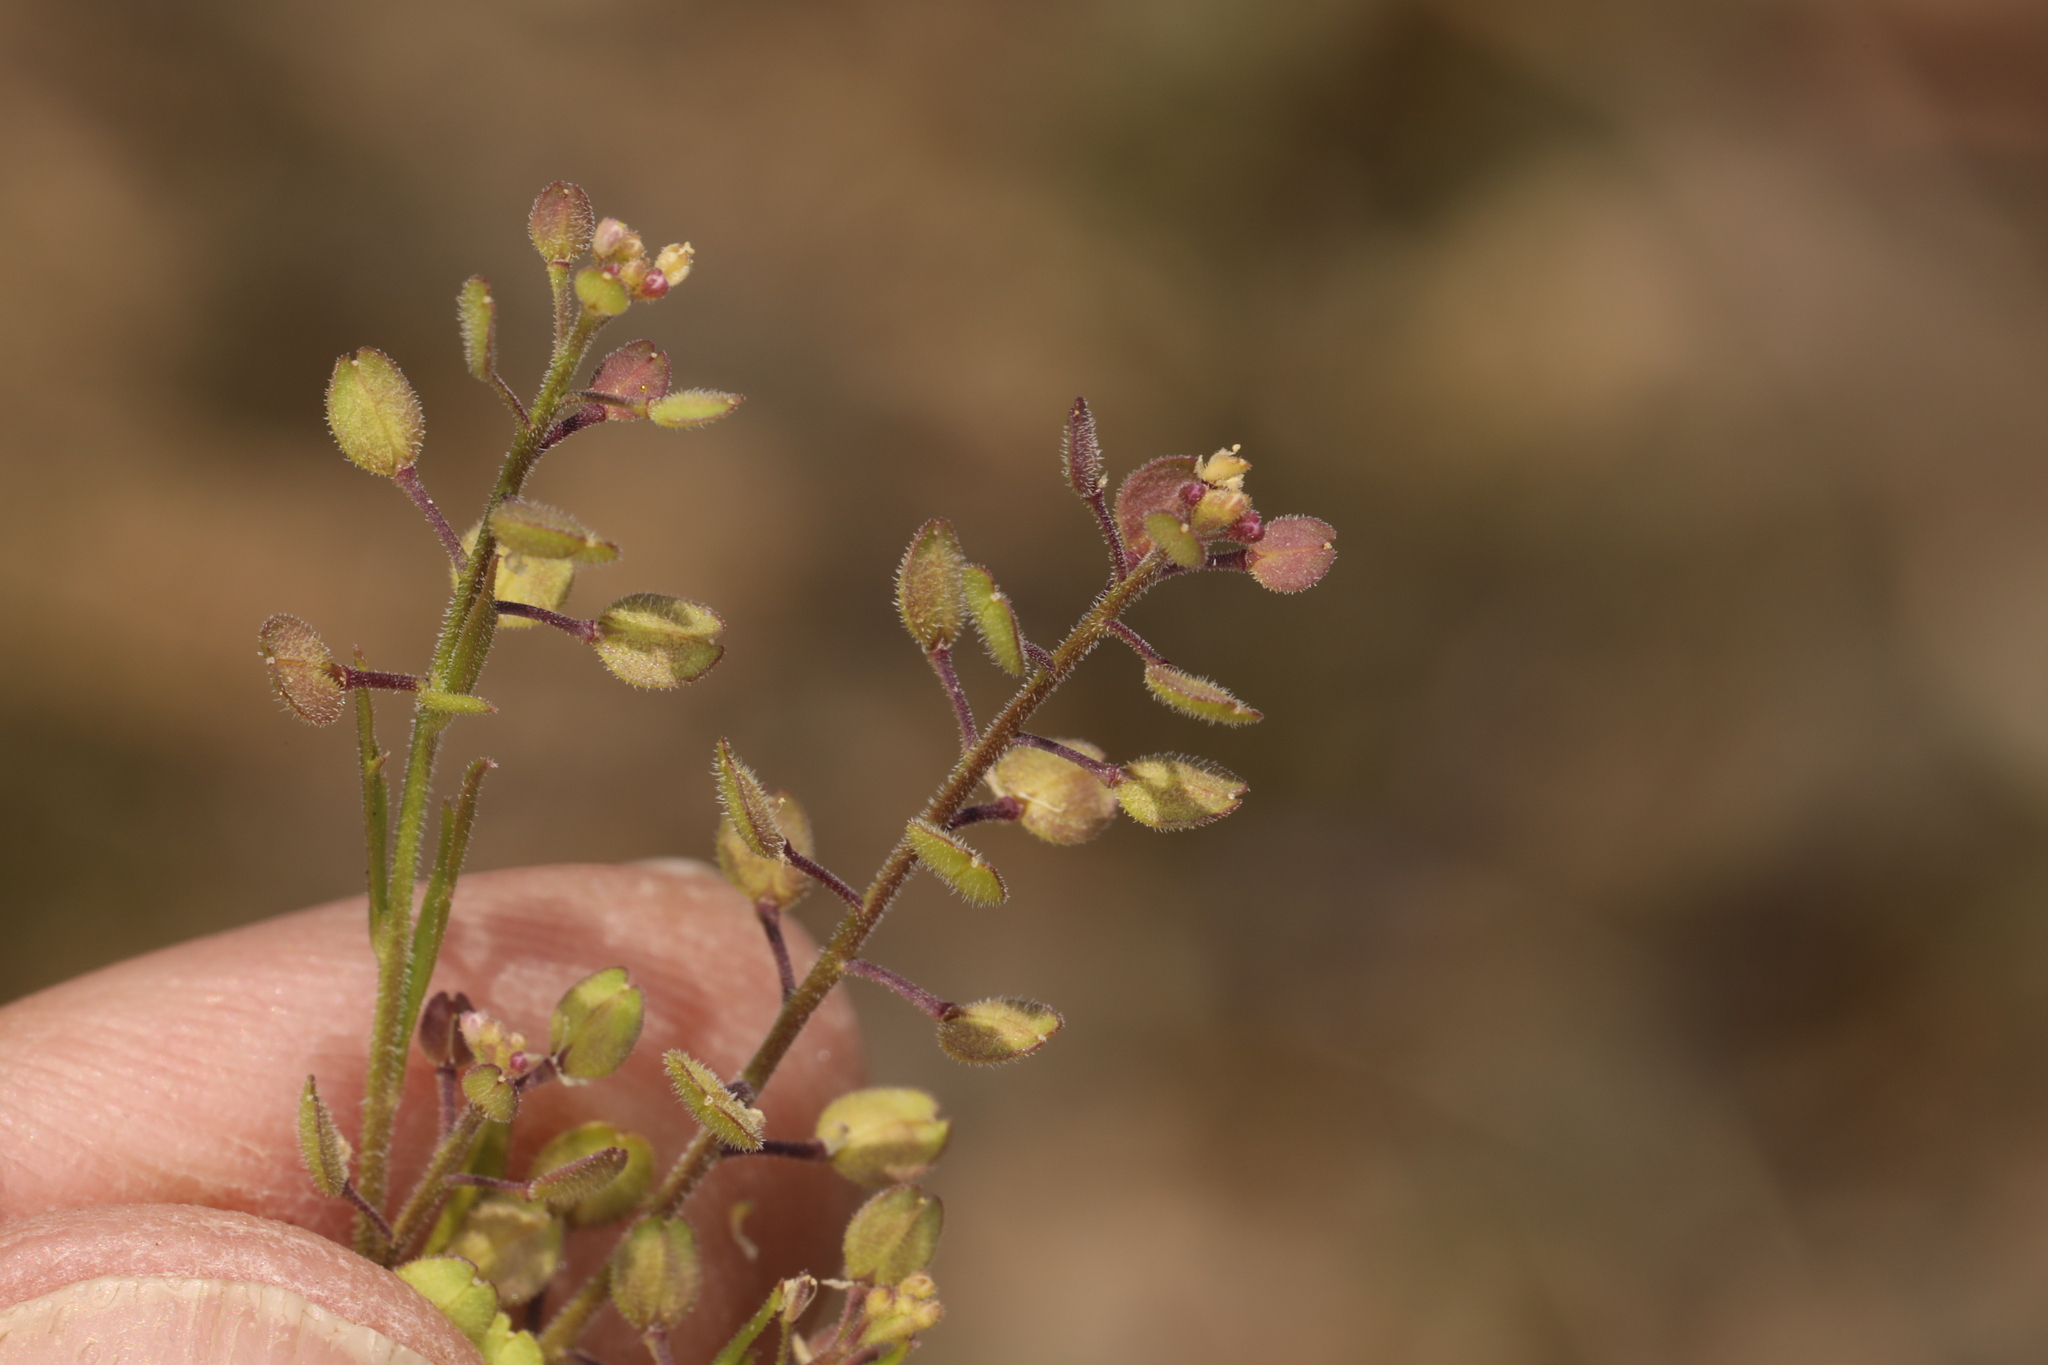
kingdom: Plantae
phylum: Tracheophyta
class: Magnoliopsida
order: Brassicales
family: Brassicaceae
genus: Lepidium
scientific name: Lepidium lasiocarpum
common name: Hairy-pod pepperwort
